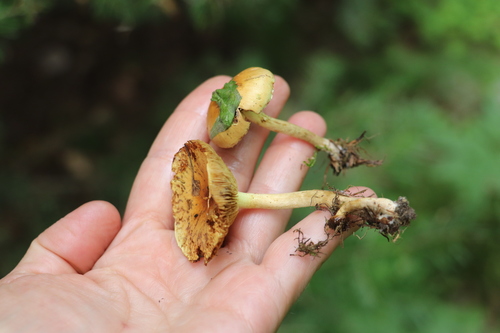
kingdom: Fungi
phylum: Basidiomycota
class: Agaricomycetes
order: Agaricales
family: Strophariaceae
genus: Pholiota
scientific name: Pholiota elegans
